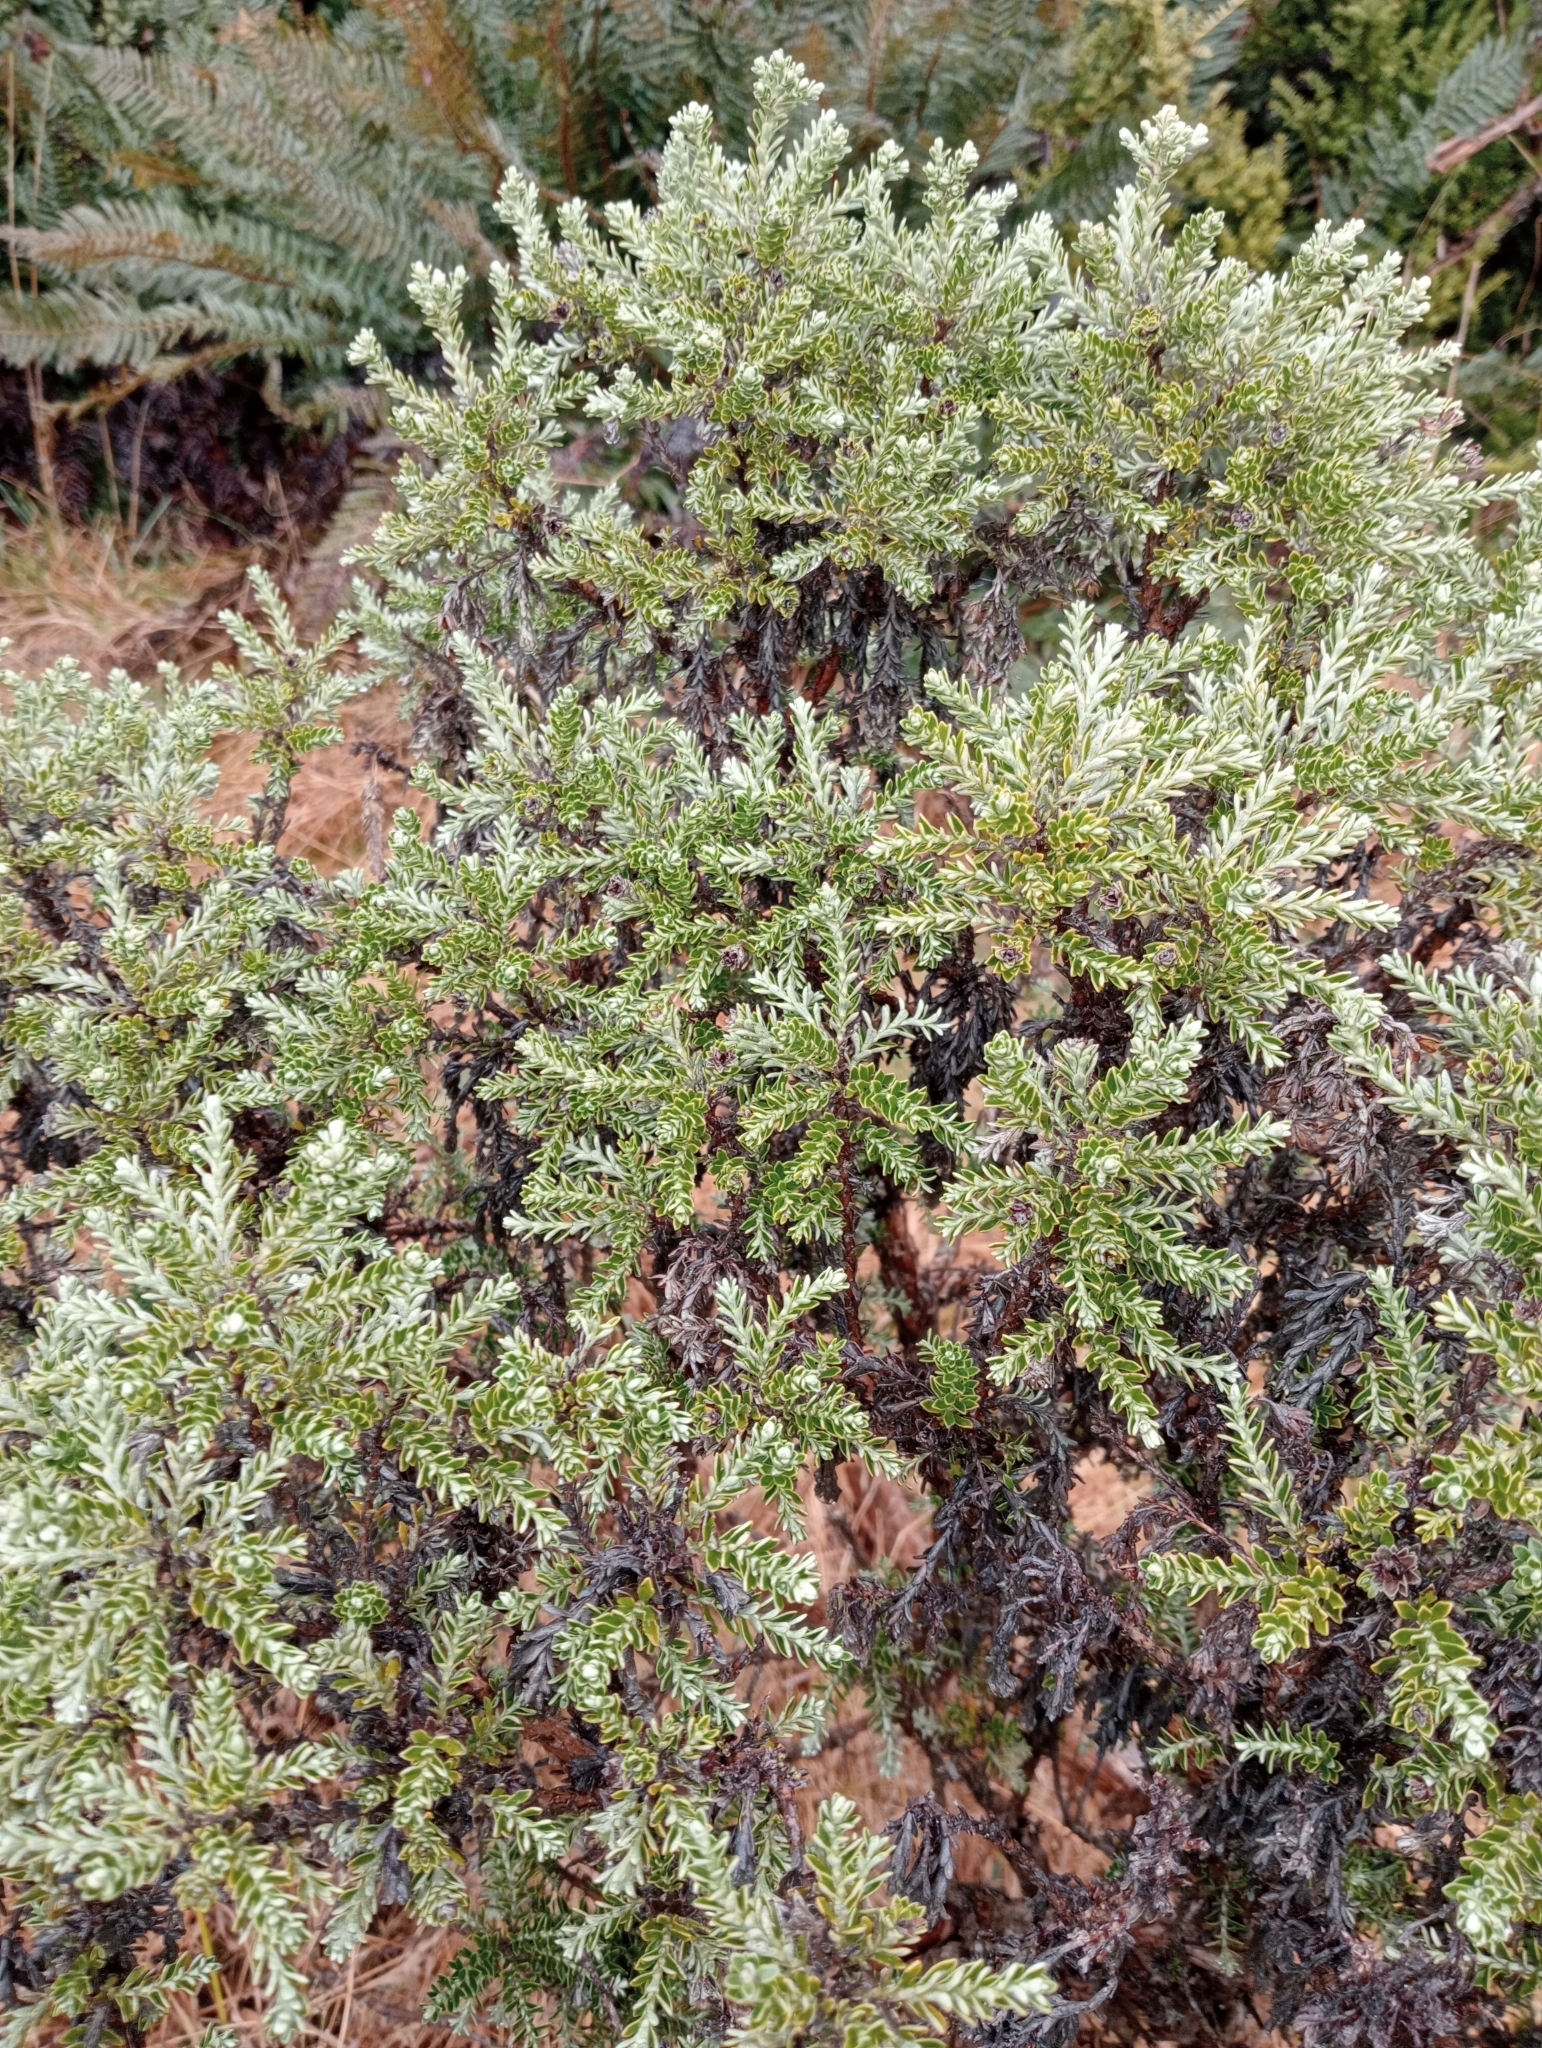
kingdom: Plantae
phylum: Tracheophyta
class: Magnoliopsida
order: Asterales
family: Asteraceae
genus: Brachyglottis
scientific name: Brachyglottis cassinioides
